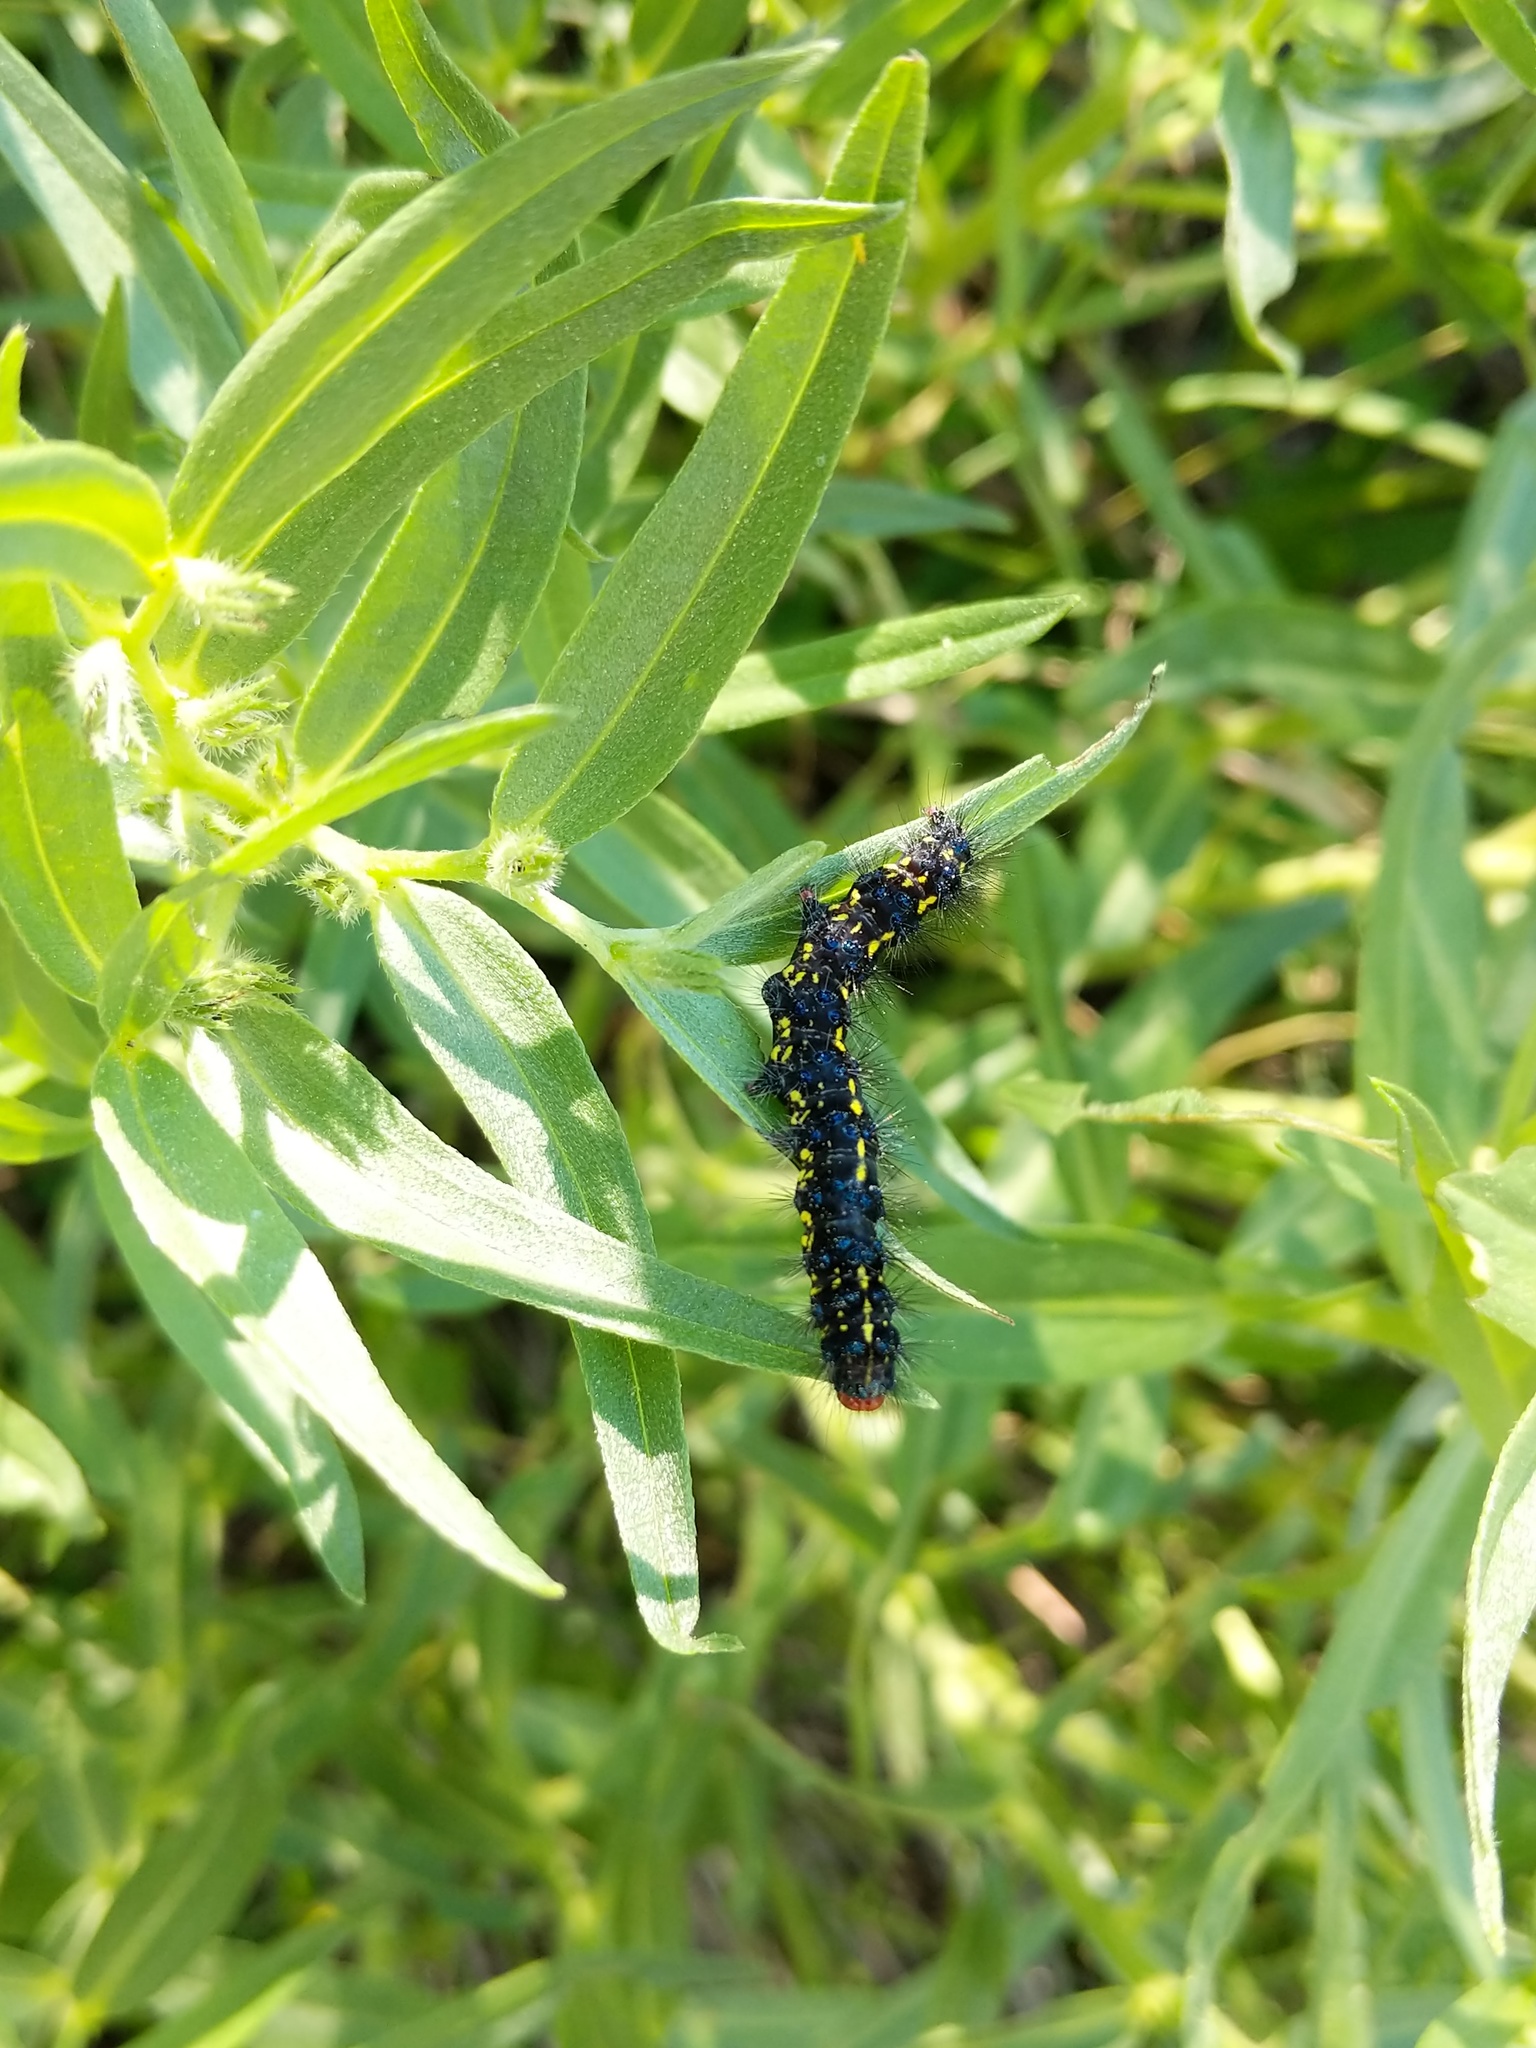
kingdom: Animalia
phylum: Arthropoda
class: Insecta
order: Lepidoptera
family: Erebidae
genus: Gnophaela
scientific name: Gnophaela vermiculata
